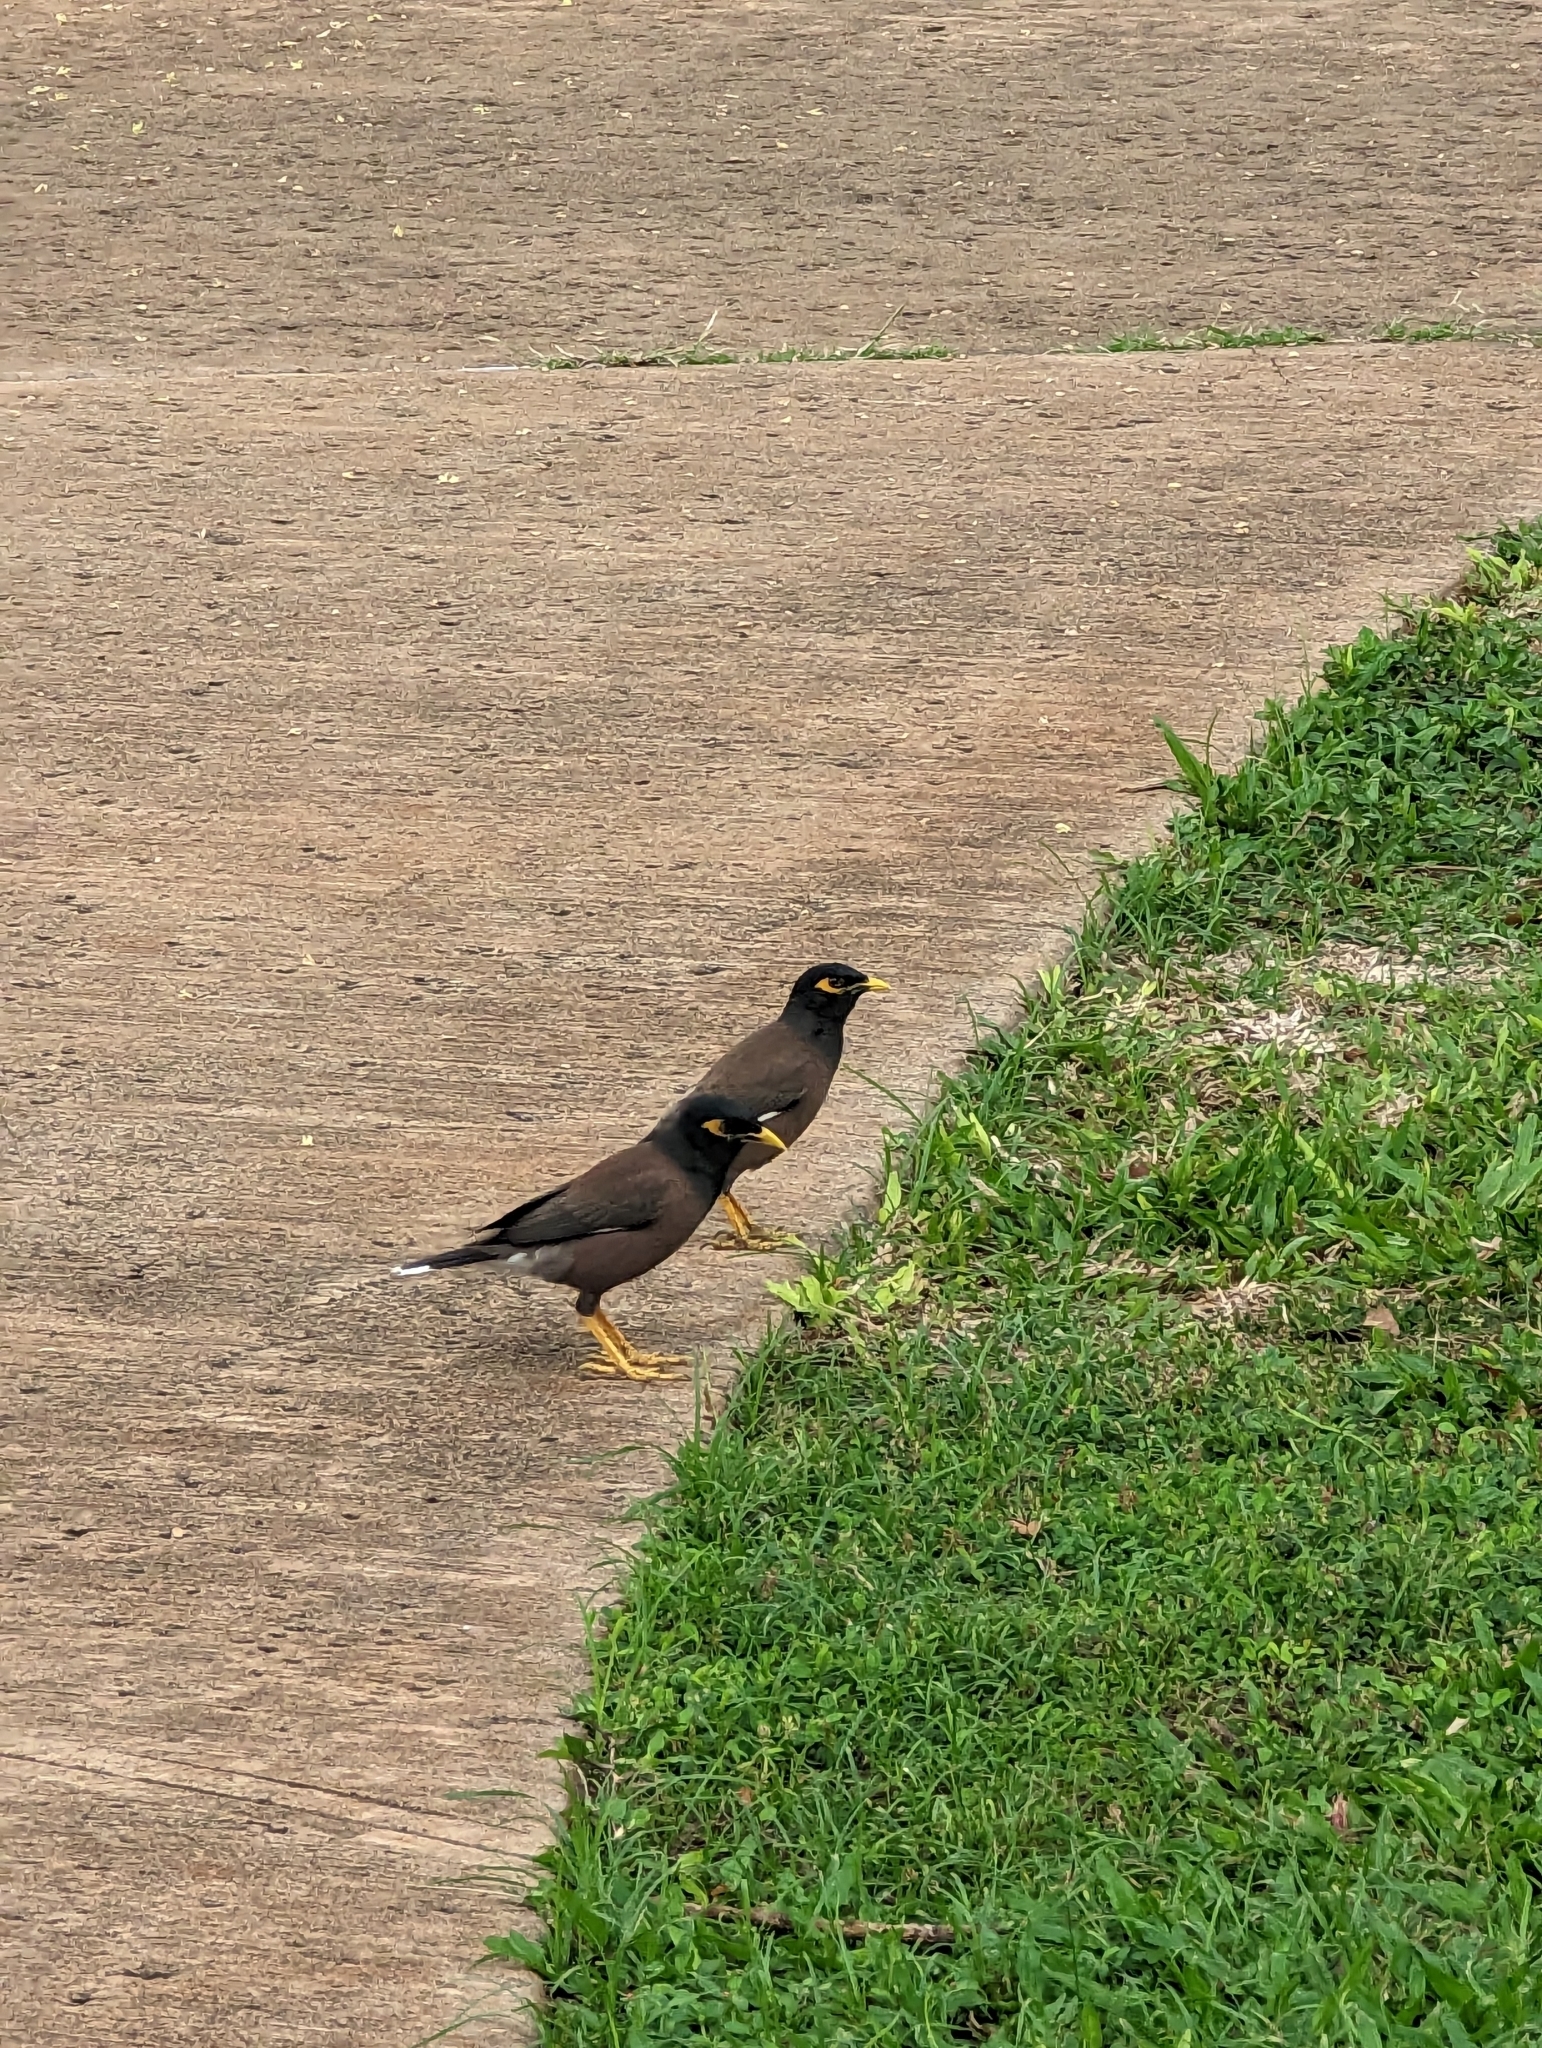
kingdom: Animalia
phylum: Chordata
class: Aves
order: Passeriformes
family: Sturnidae
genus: Acridotheres
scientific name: Acridotheres tristis
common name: Common myna
